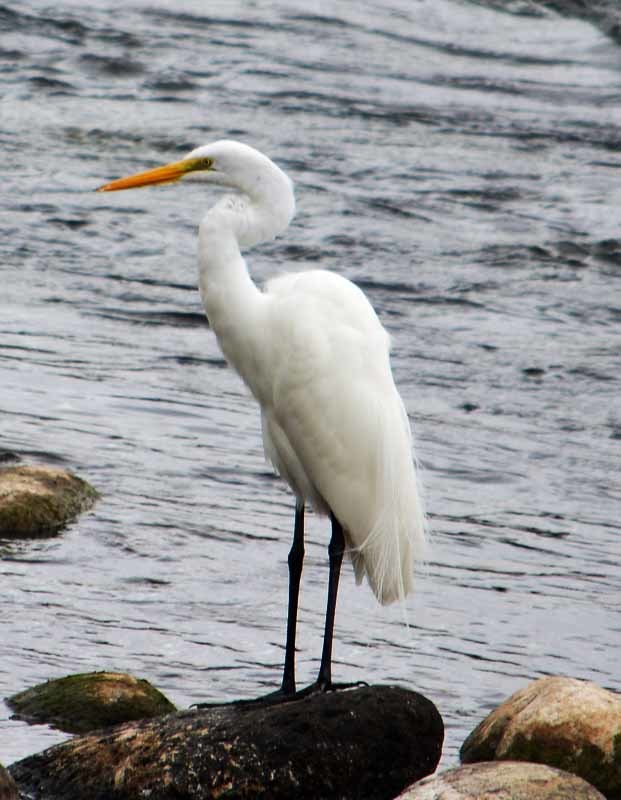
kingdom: Animalia
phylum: Chordata
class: Aves
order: Pelecaniformes
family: Ardeidae
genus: Ardea
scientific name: Ardea alba
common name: Great egret
